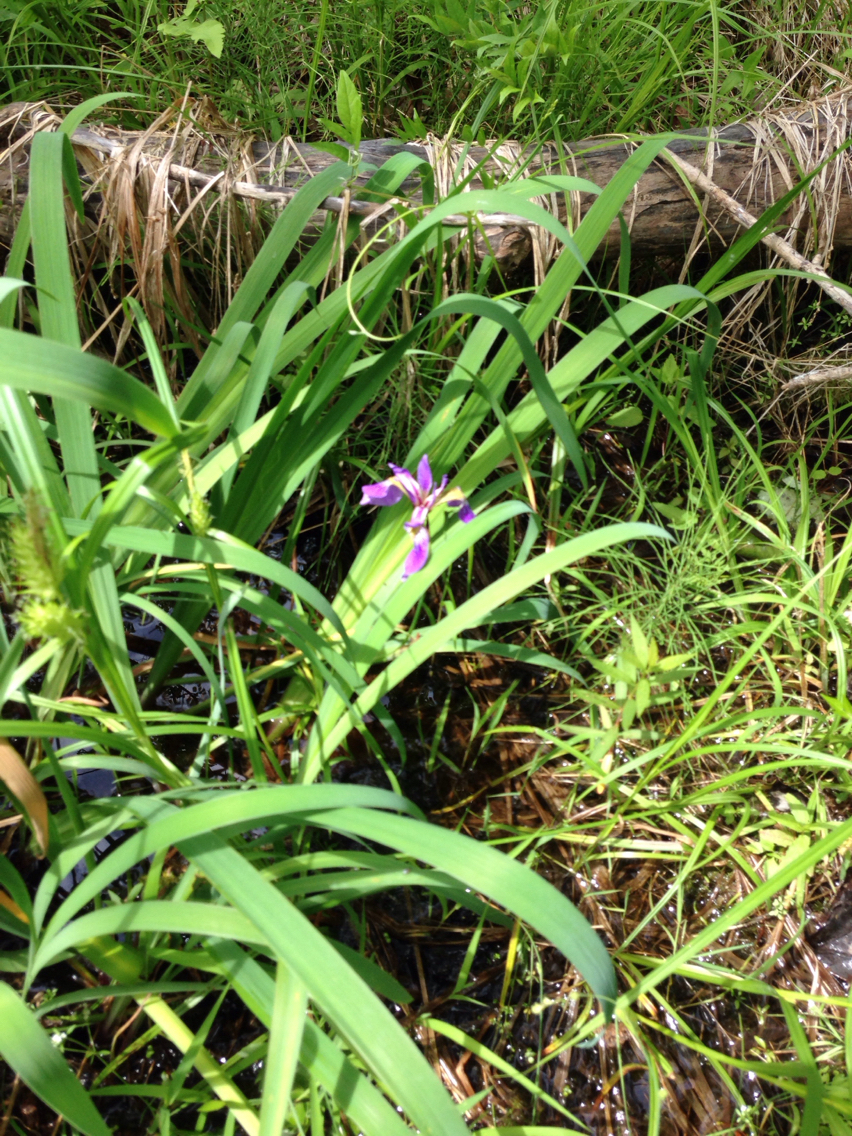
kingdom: Plantae
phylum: Tracheophyta
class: Liliopsida
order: Asparagales
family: Iridaceae
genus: Iris
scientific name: Iris versicolor
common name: Purple iris
